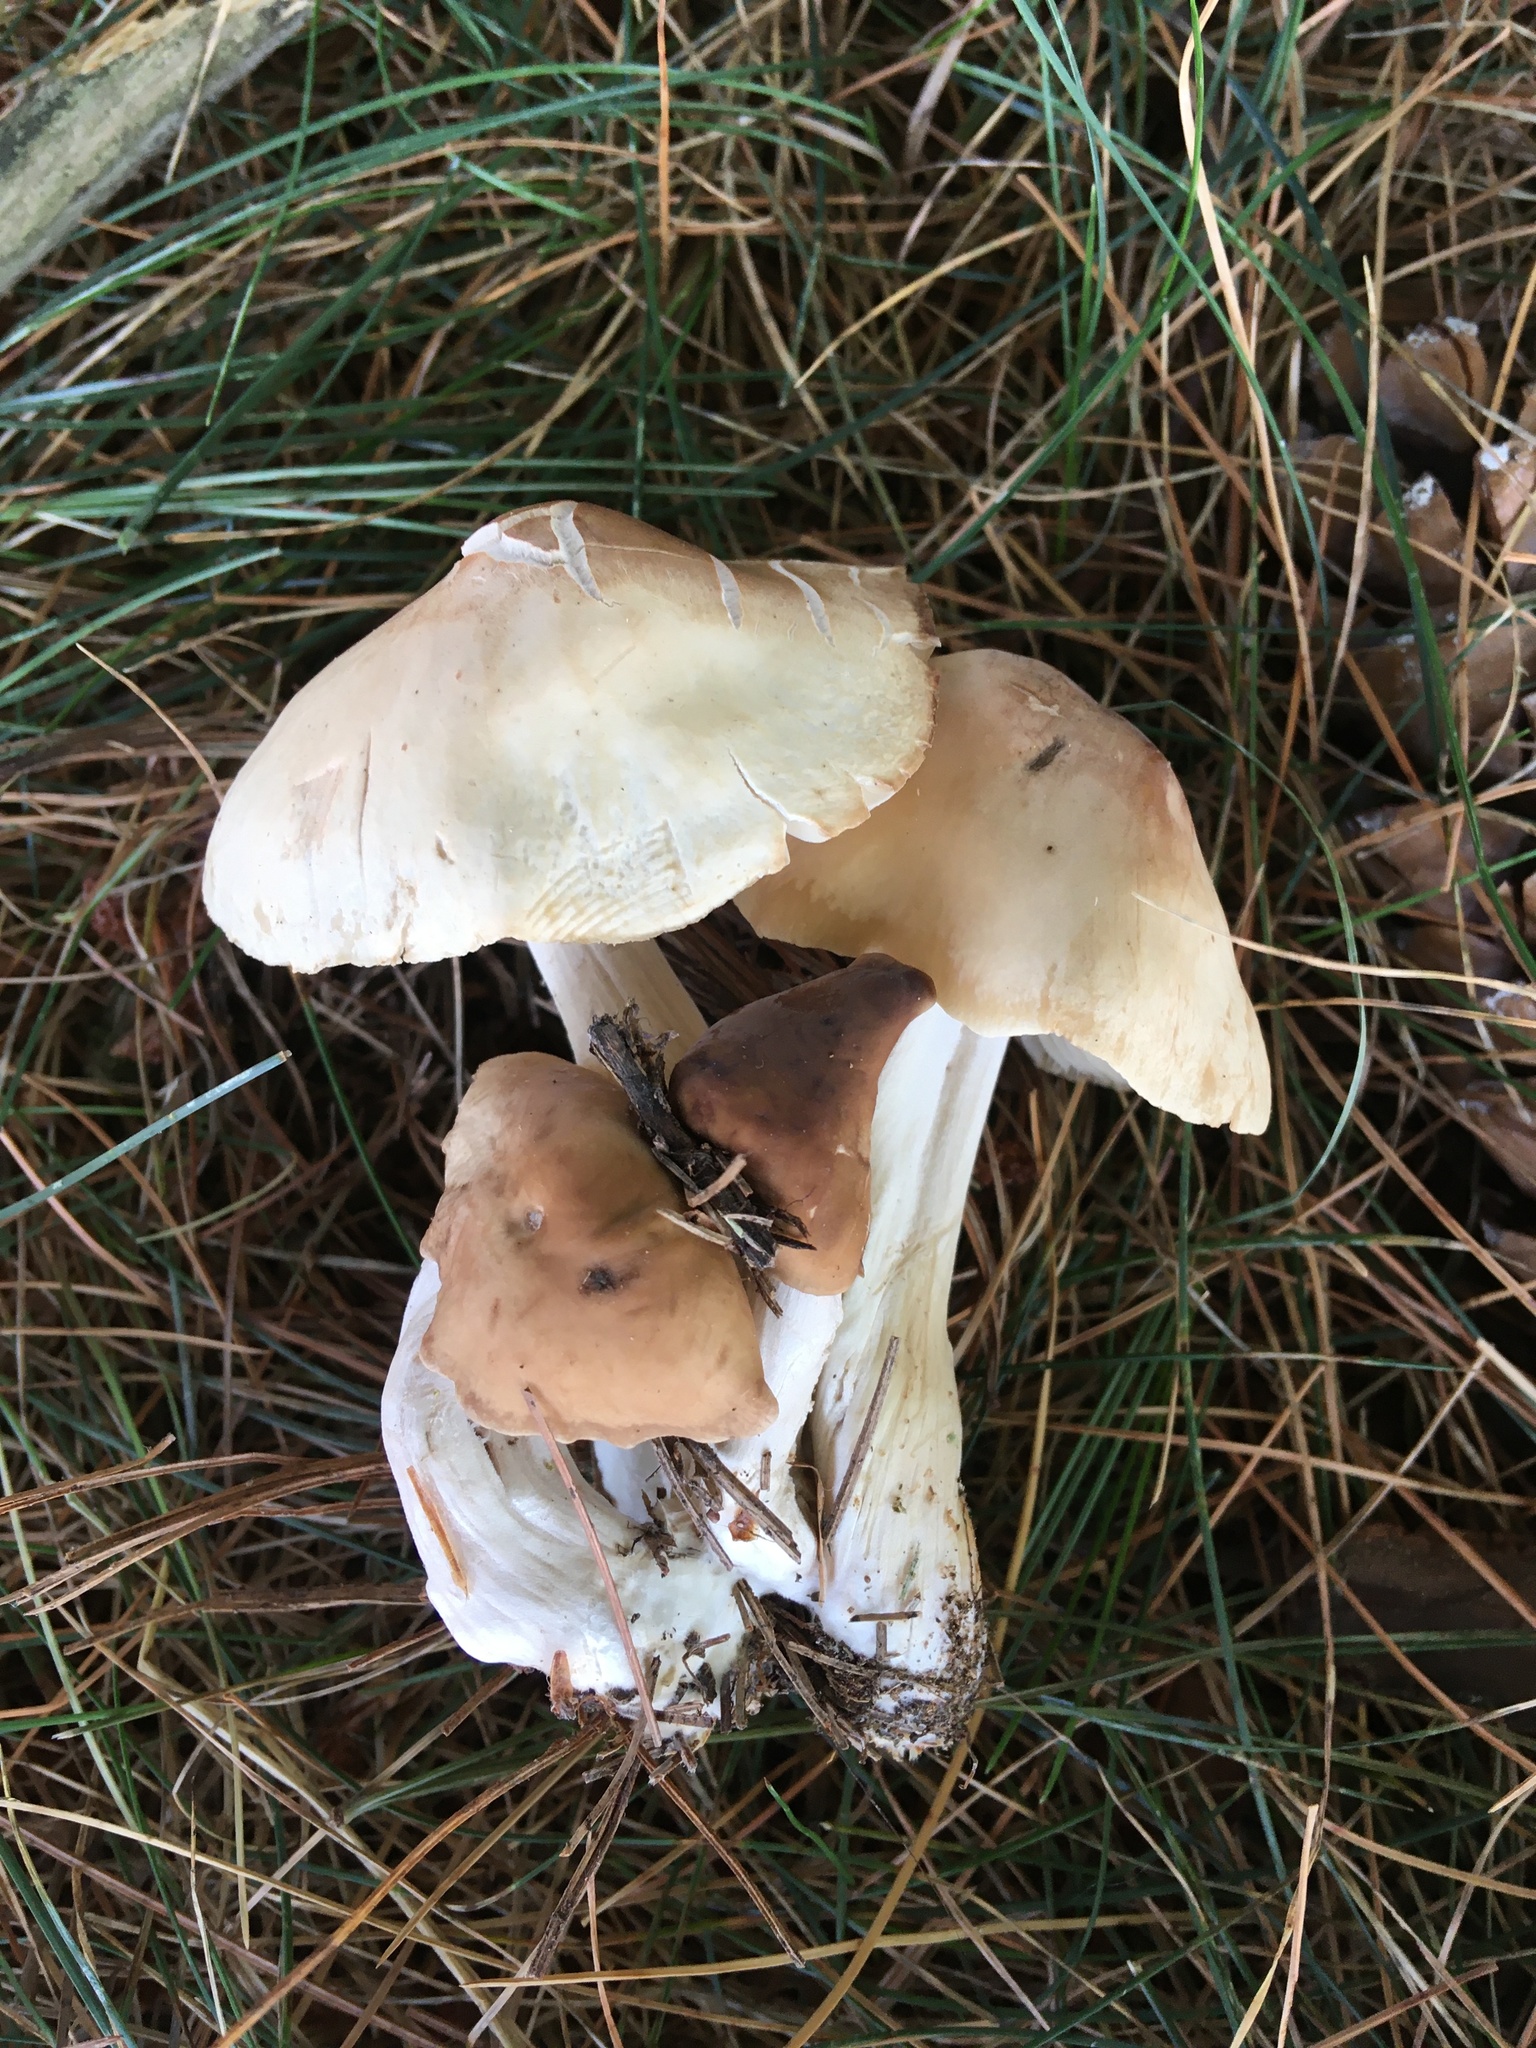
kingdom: Fungi
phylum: Basidiomycota
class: Agaricomycetes
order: Agaricales
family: Marasmiaceae
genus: Marasmius
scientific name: Marasmius oreades
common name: Fairy ring champignon
